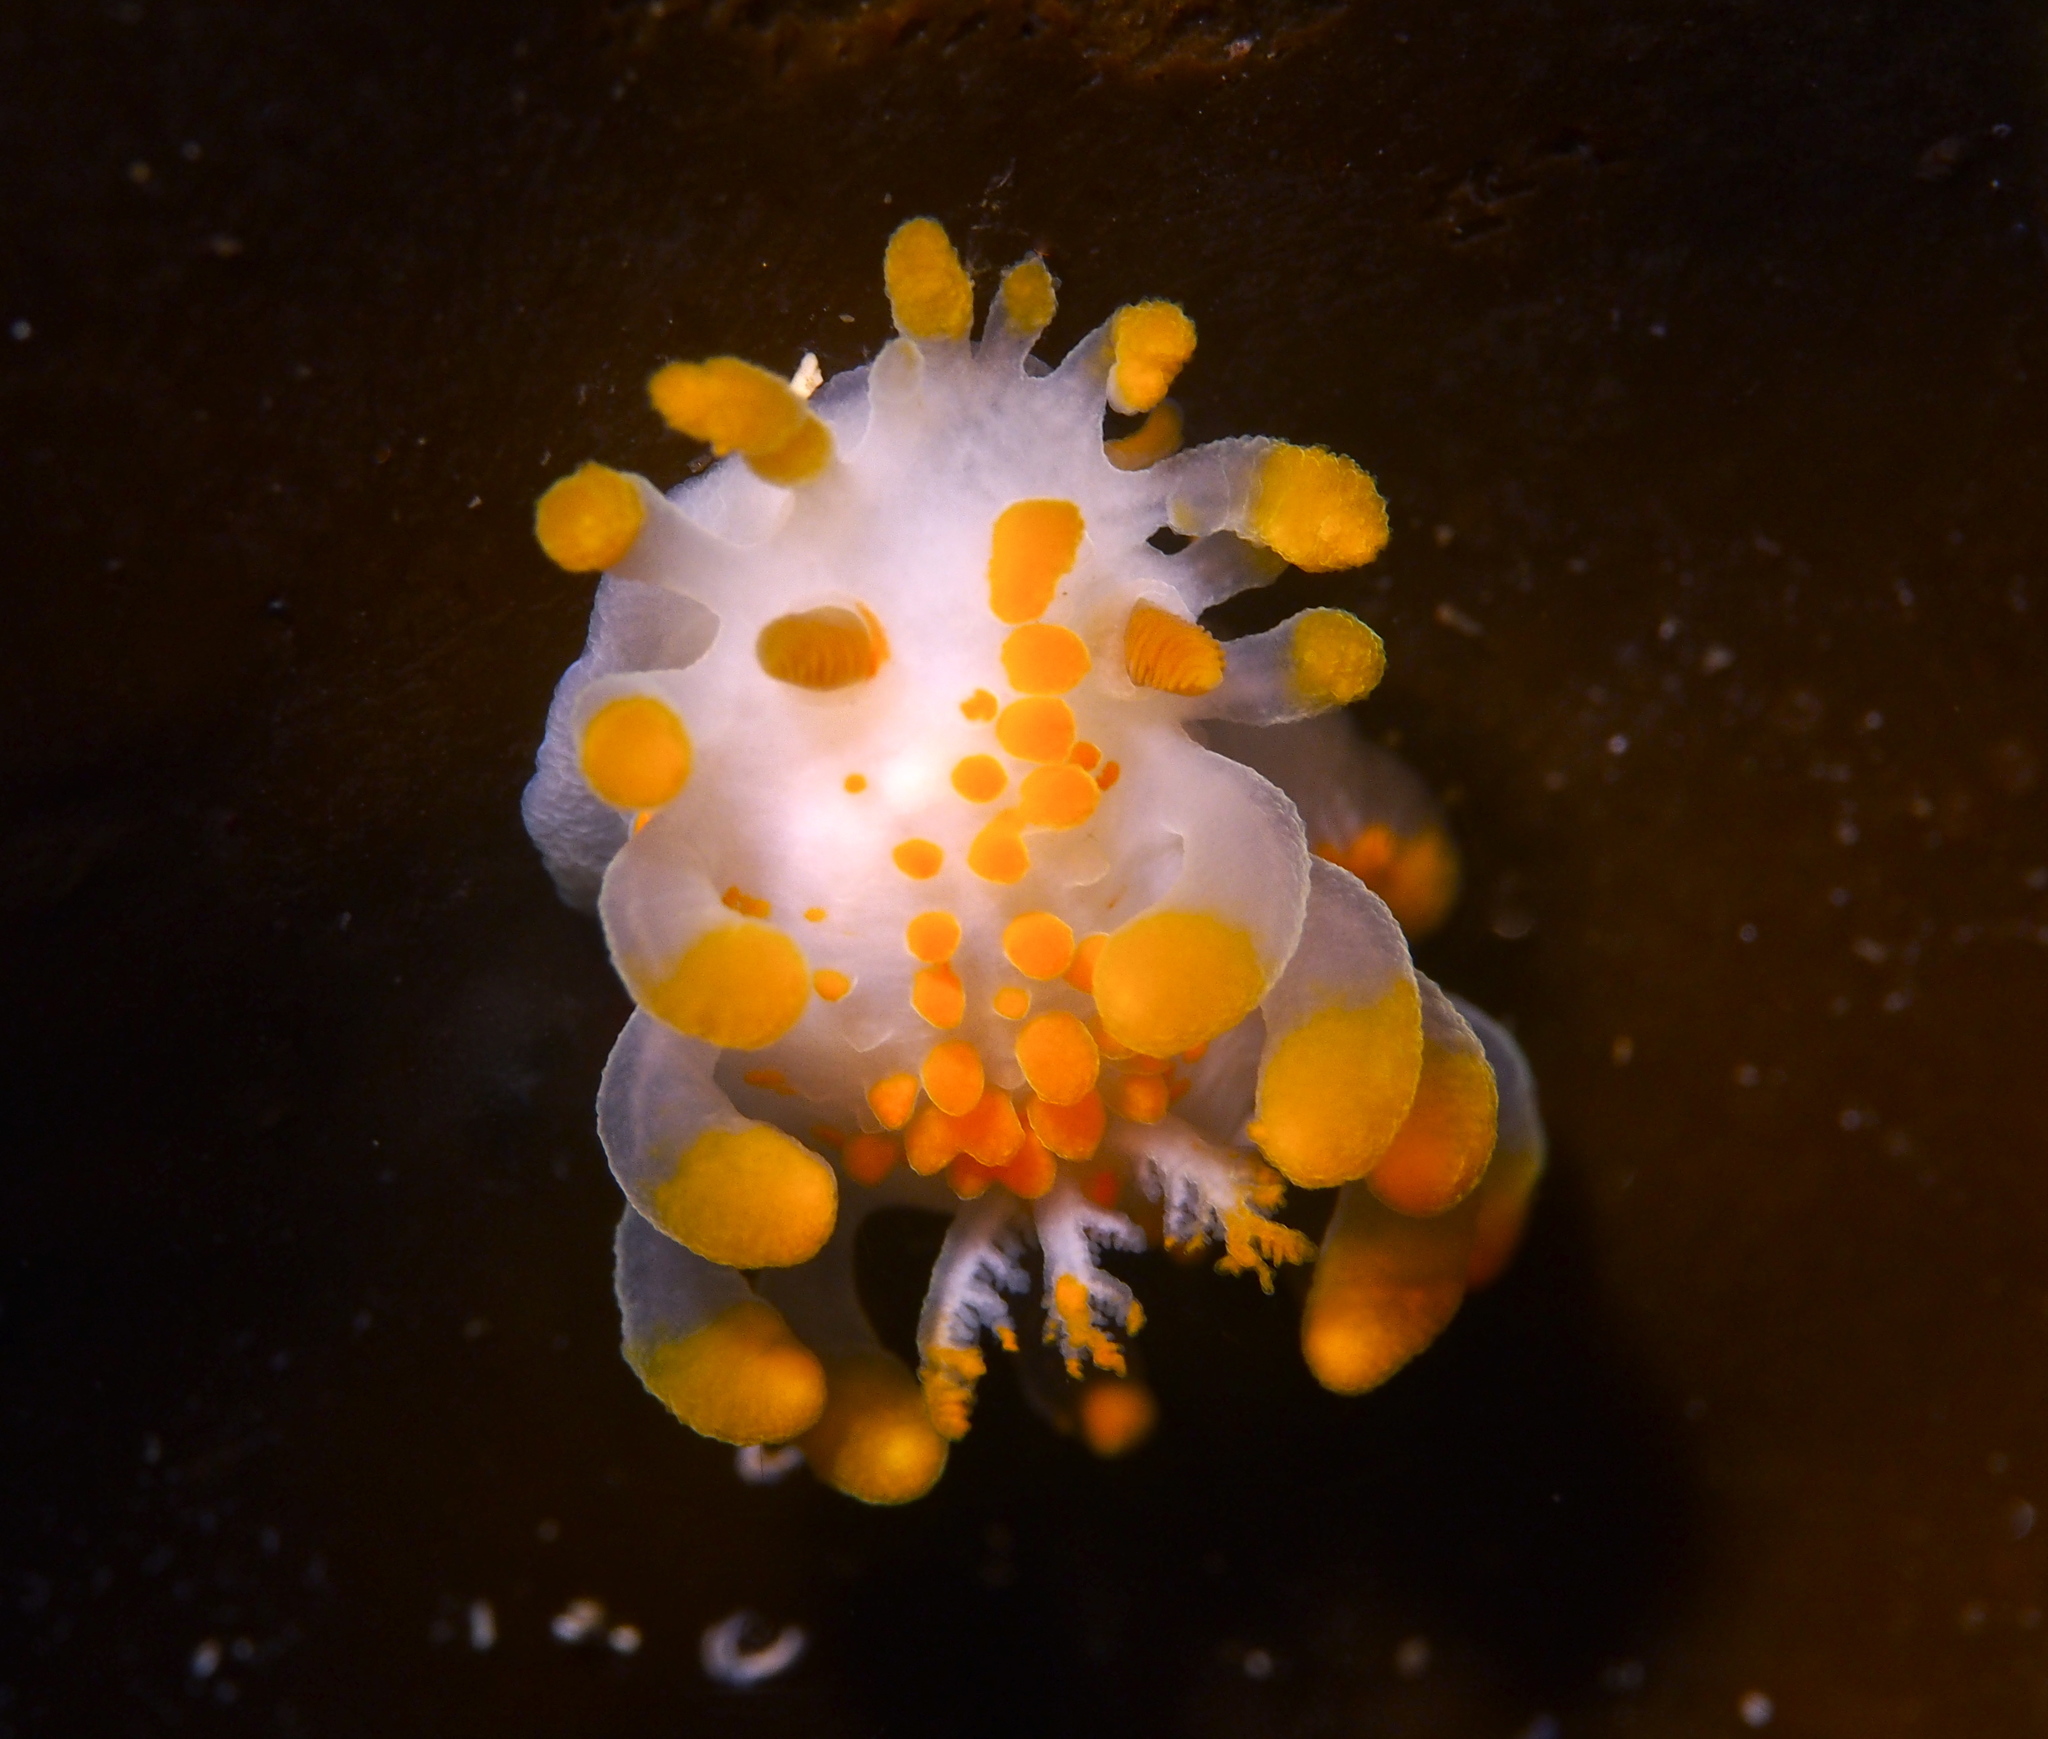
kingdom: Animalia
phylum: Mollusca
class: Gastropoda
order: Nudibranchia
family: Polyceridae
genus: Limacia
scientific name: Limacia clavigera
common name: Orange-clubbed sea slug
